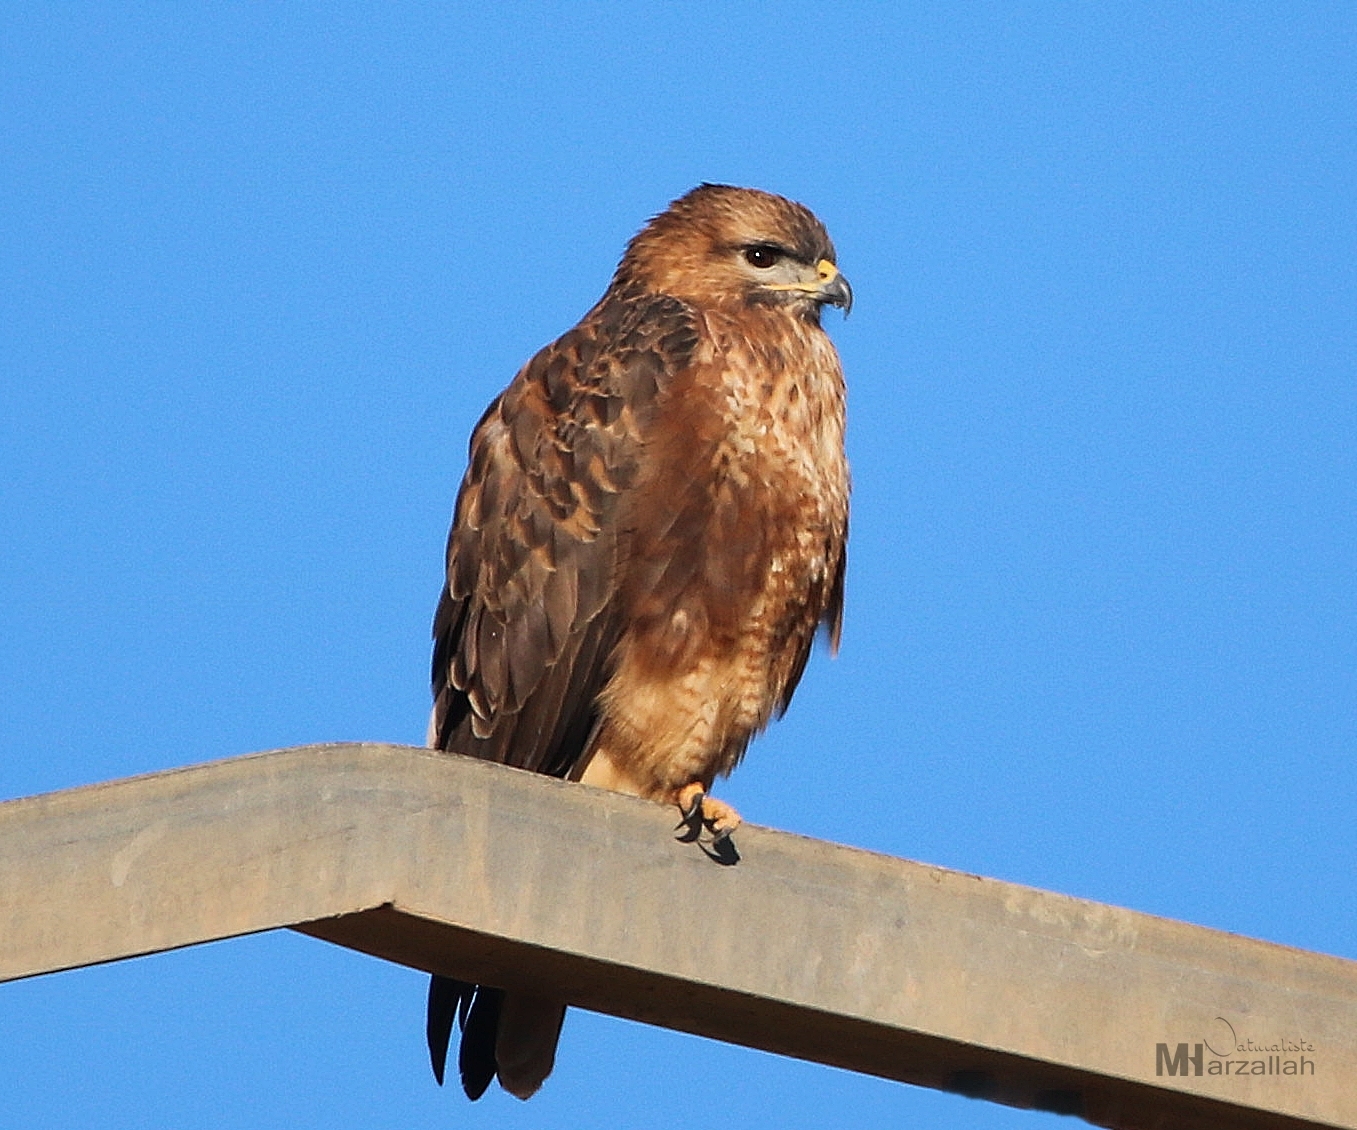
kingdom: Animalia
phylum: Chordata
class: Aves
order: Accipitriformes
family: Accipitridae
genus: Buteo
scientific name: Buteo buteo
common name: Common buzzard
